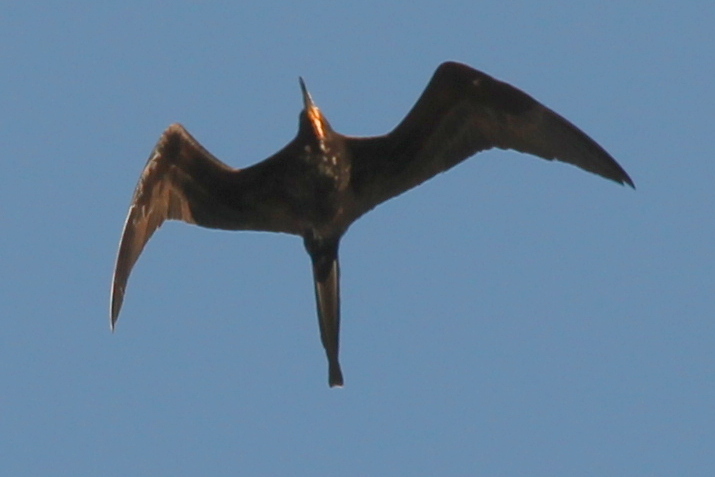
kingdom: Animalia
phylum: Chordata
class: Aves
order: Suliformes
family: Fregatidae
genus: Fregata
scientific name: Fregata magnificens
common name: Magnificent frigatebird
